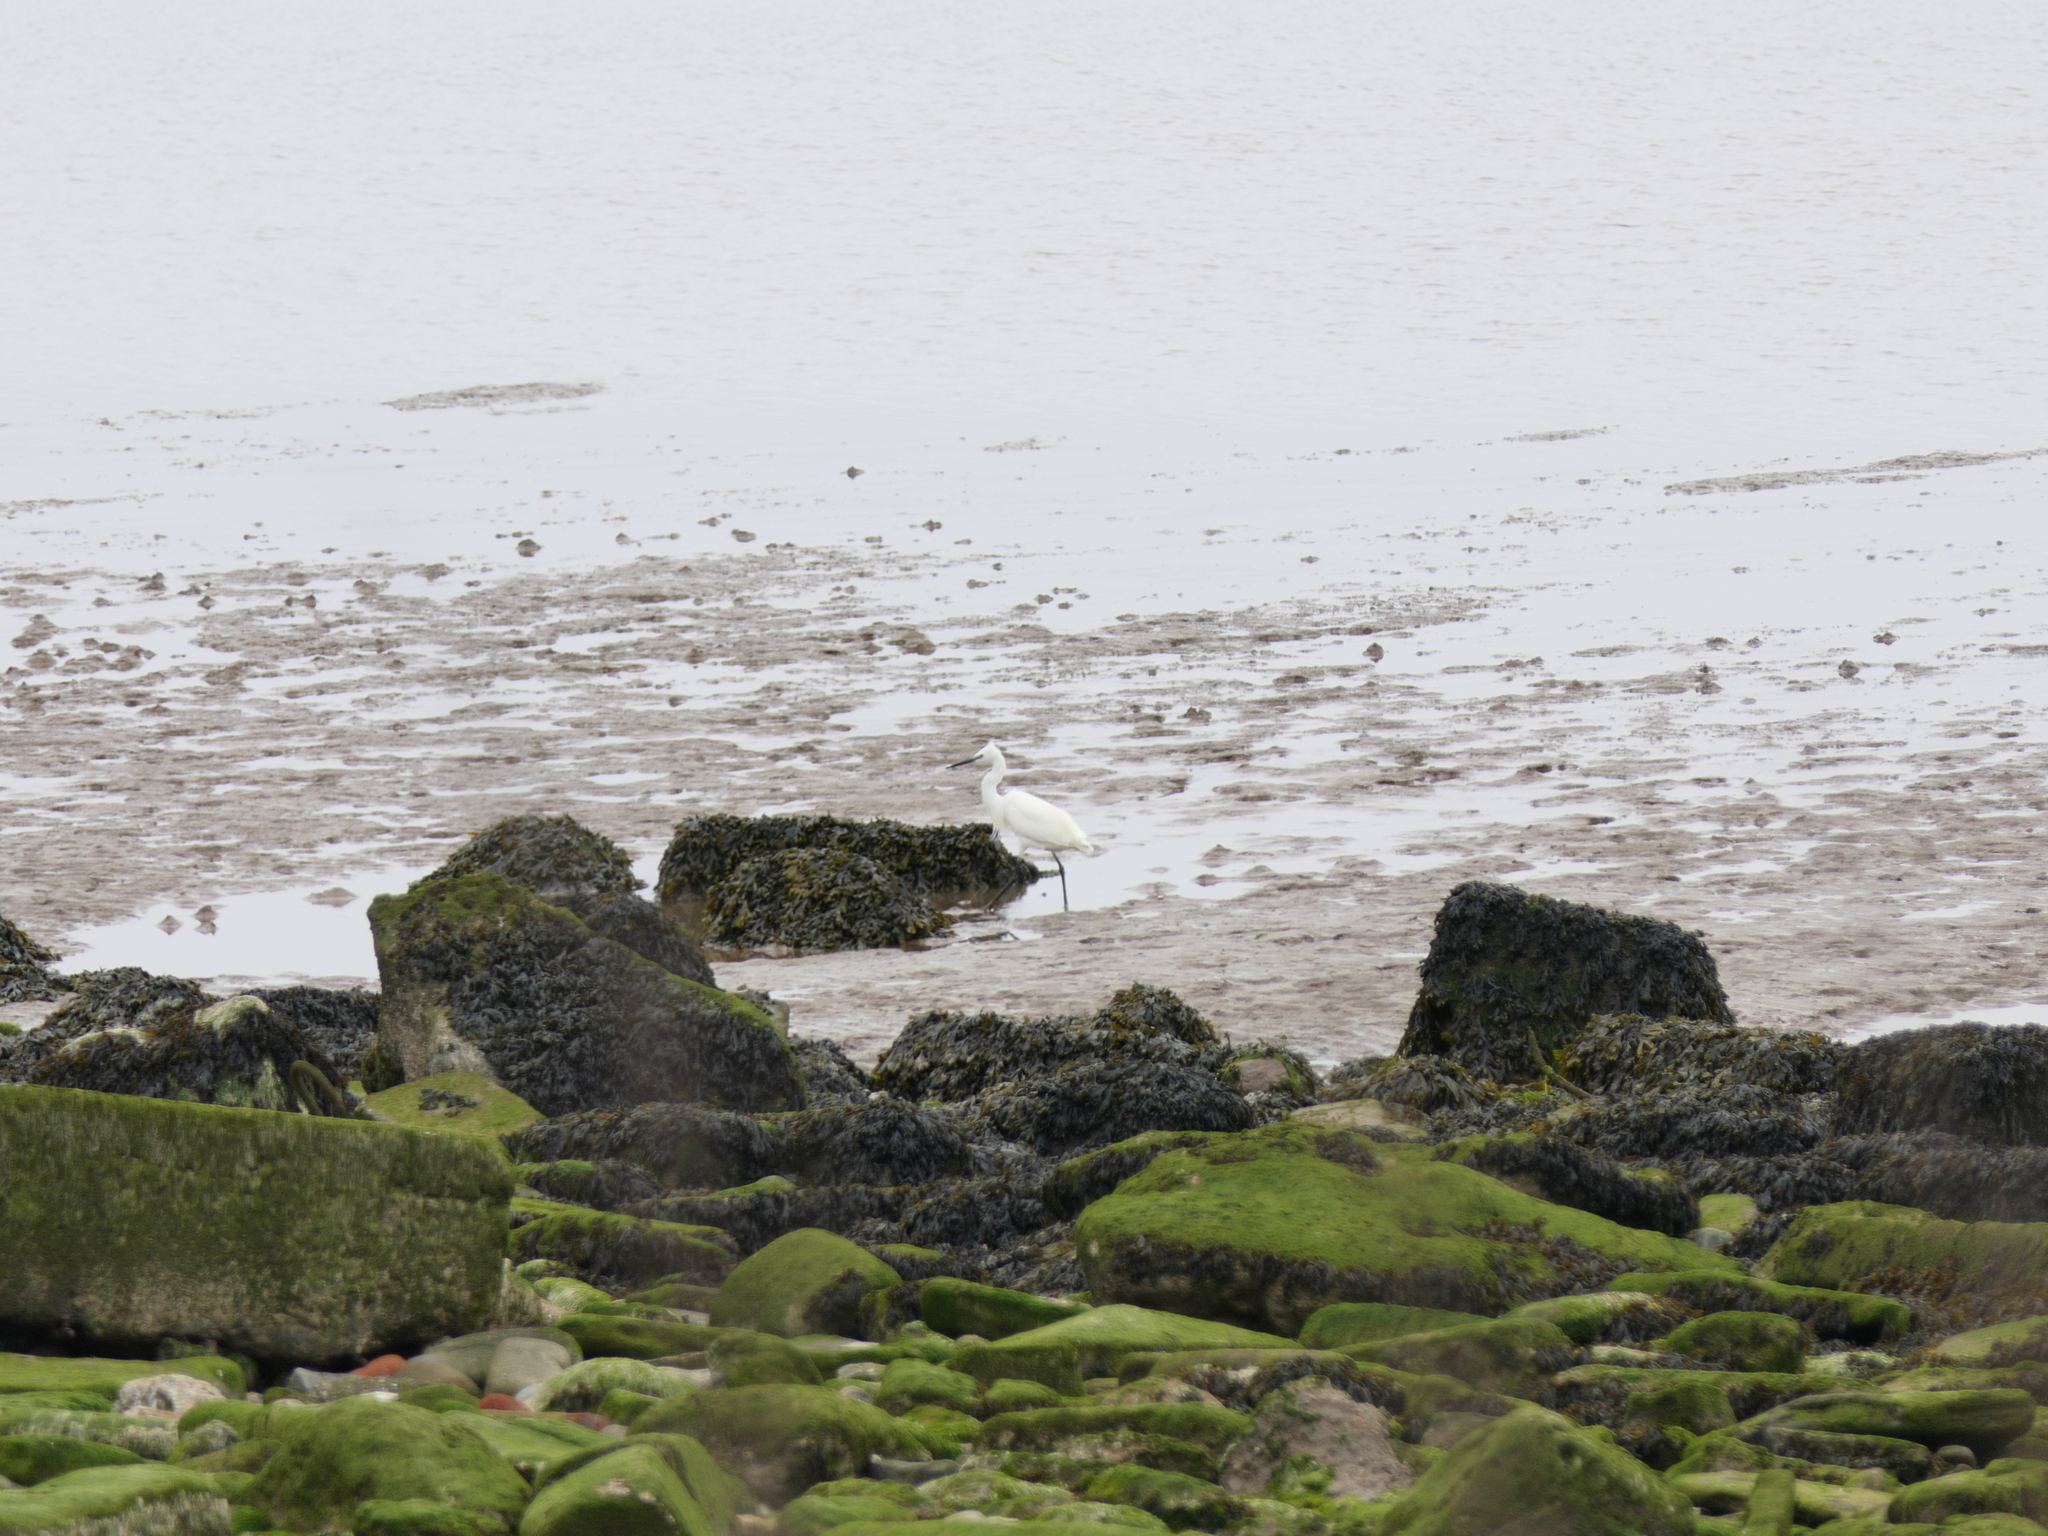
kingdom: Animalia
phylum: Chordata
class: Aves
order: Pelecaniformes
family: Ardeidae
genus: Egretta
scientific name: Egretta garzetta
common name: Little egret
